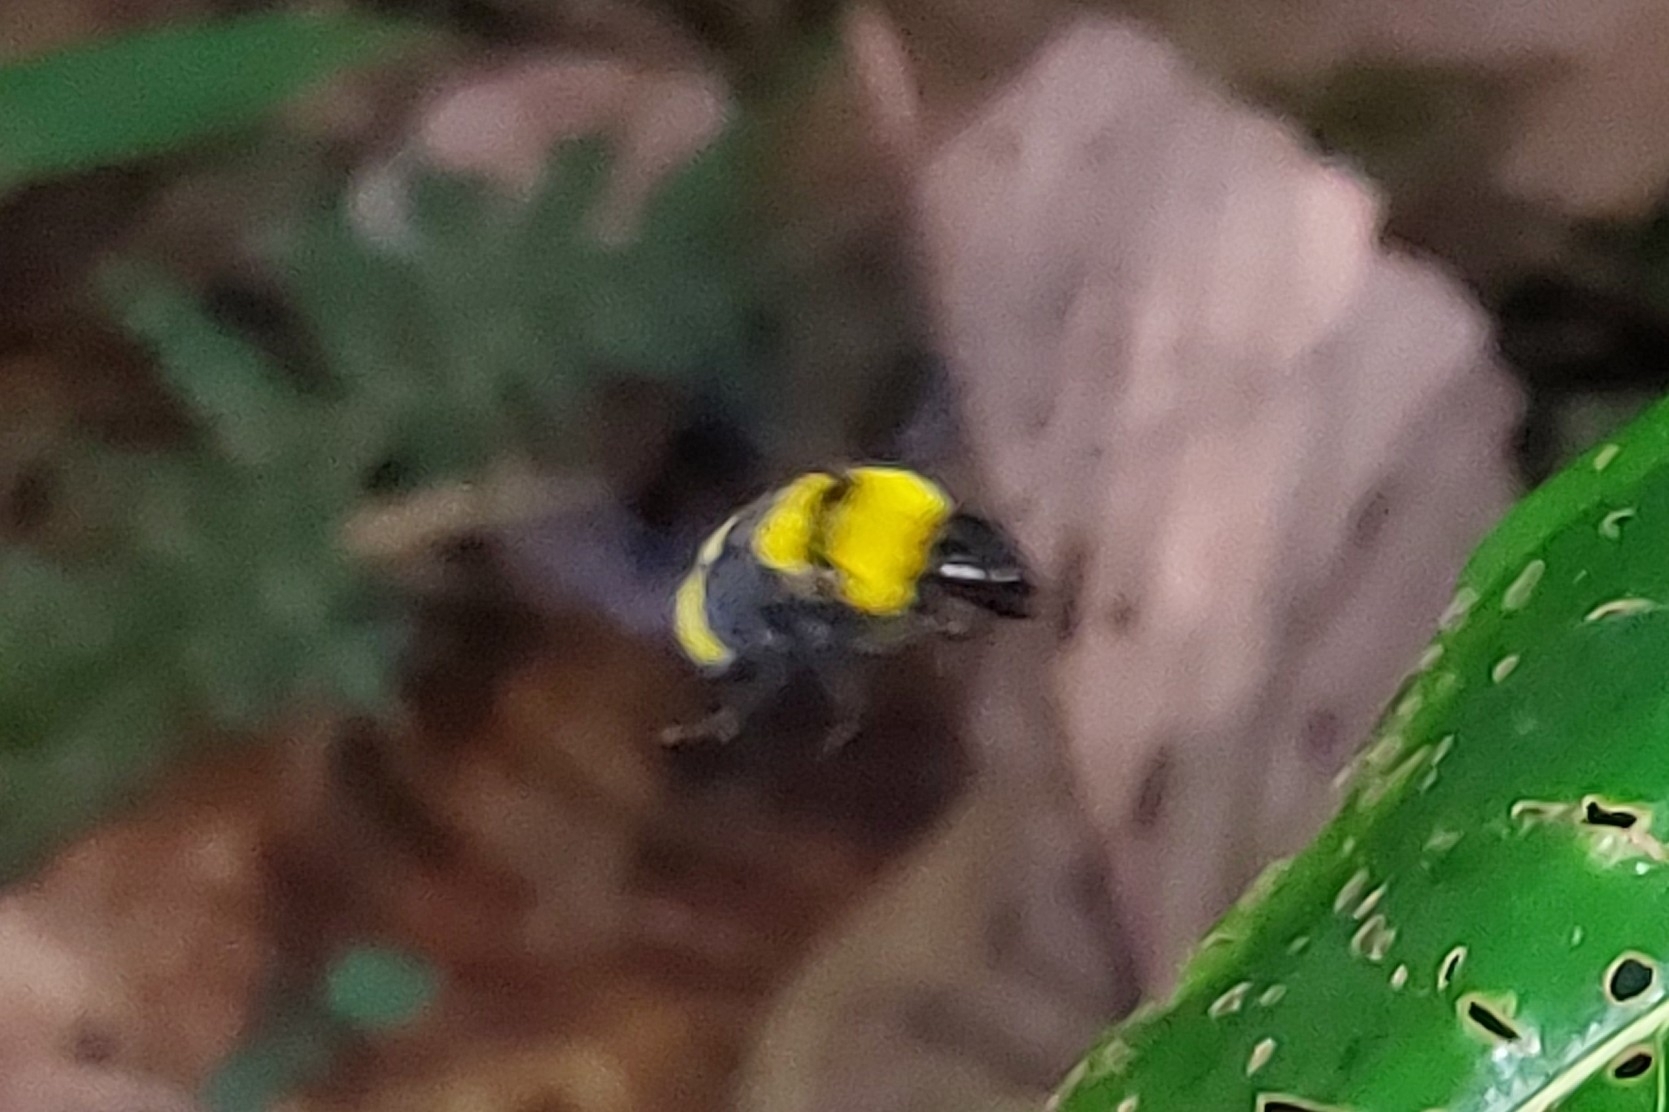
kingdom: Animalia
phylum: Arthropoda
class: Insecta
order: Hymenoptera
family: Apidae
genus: Bombus
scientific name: Bombus transversalis
